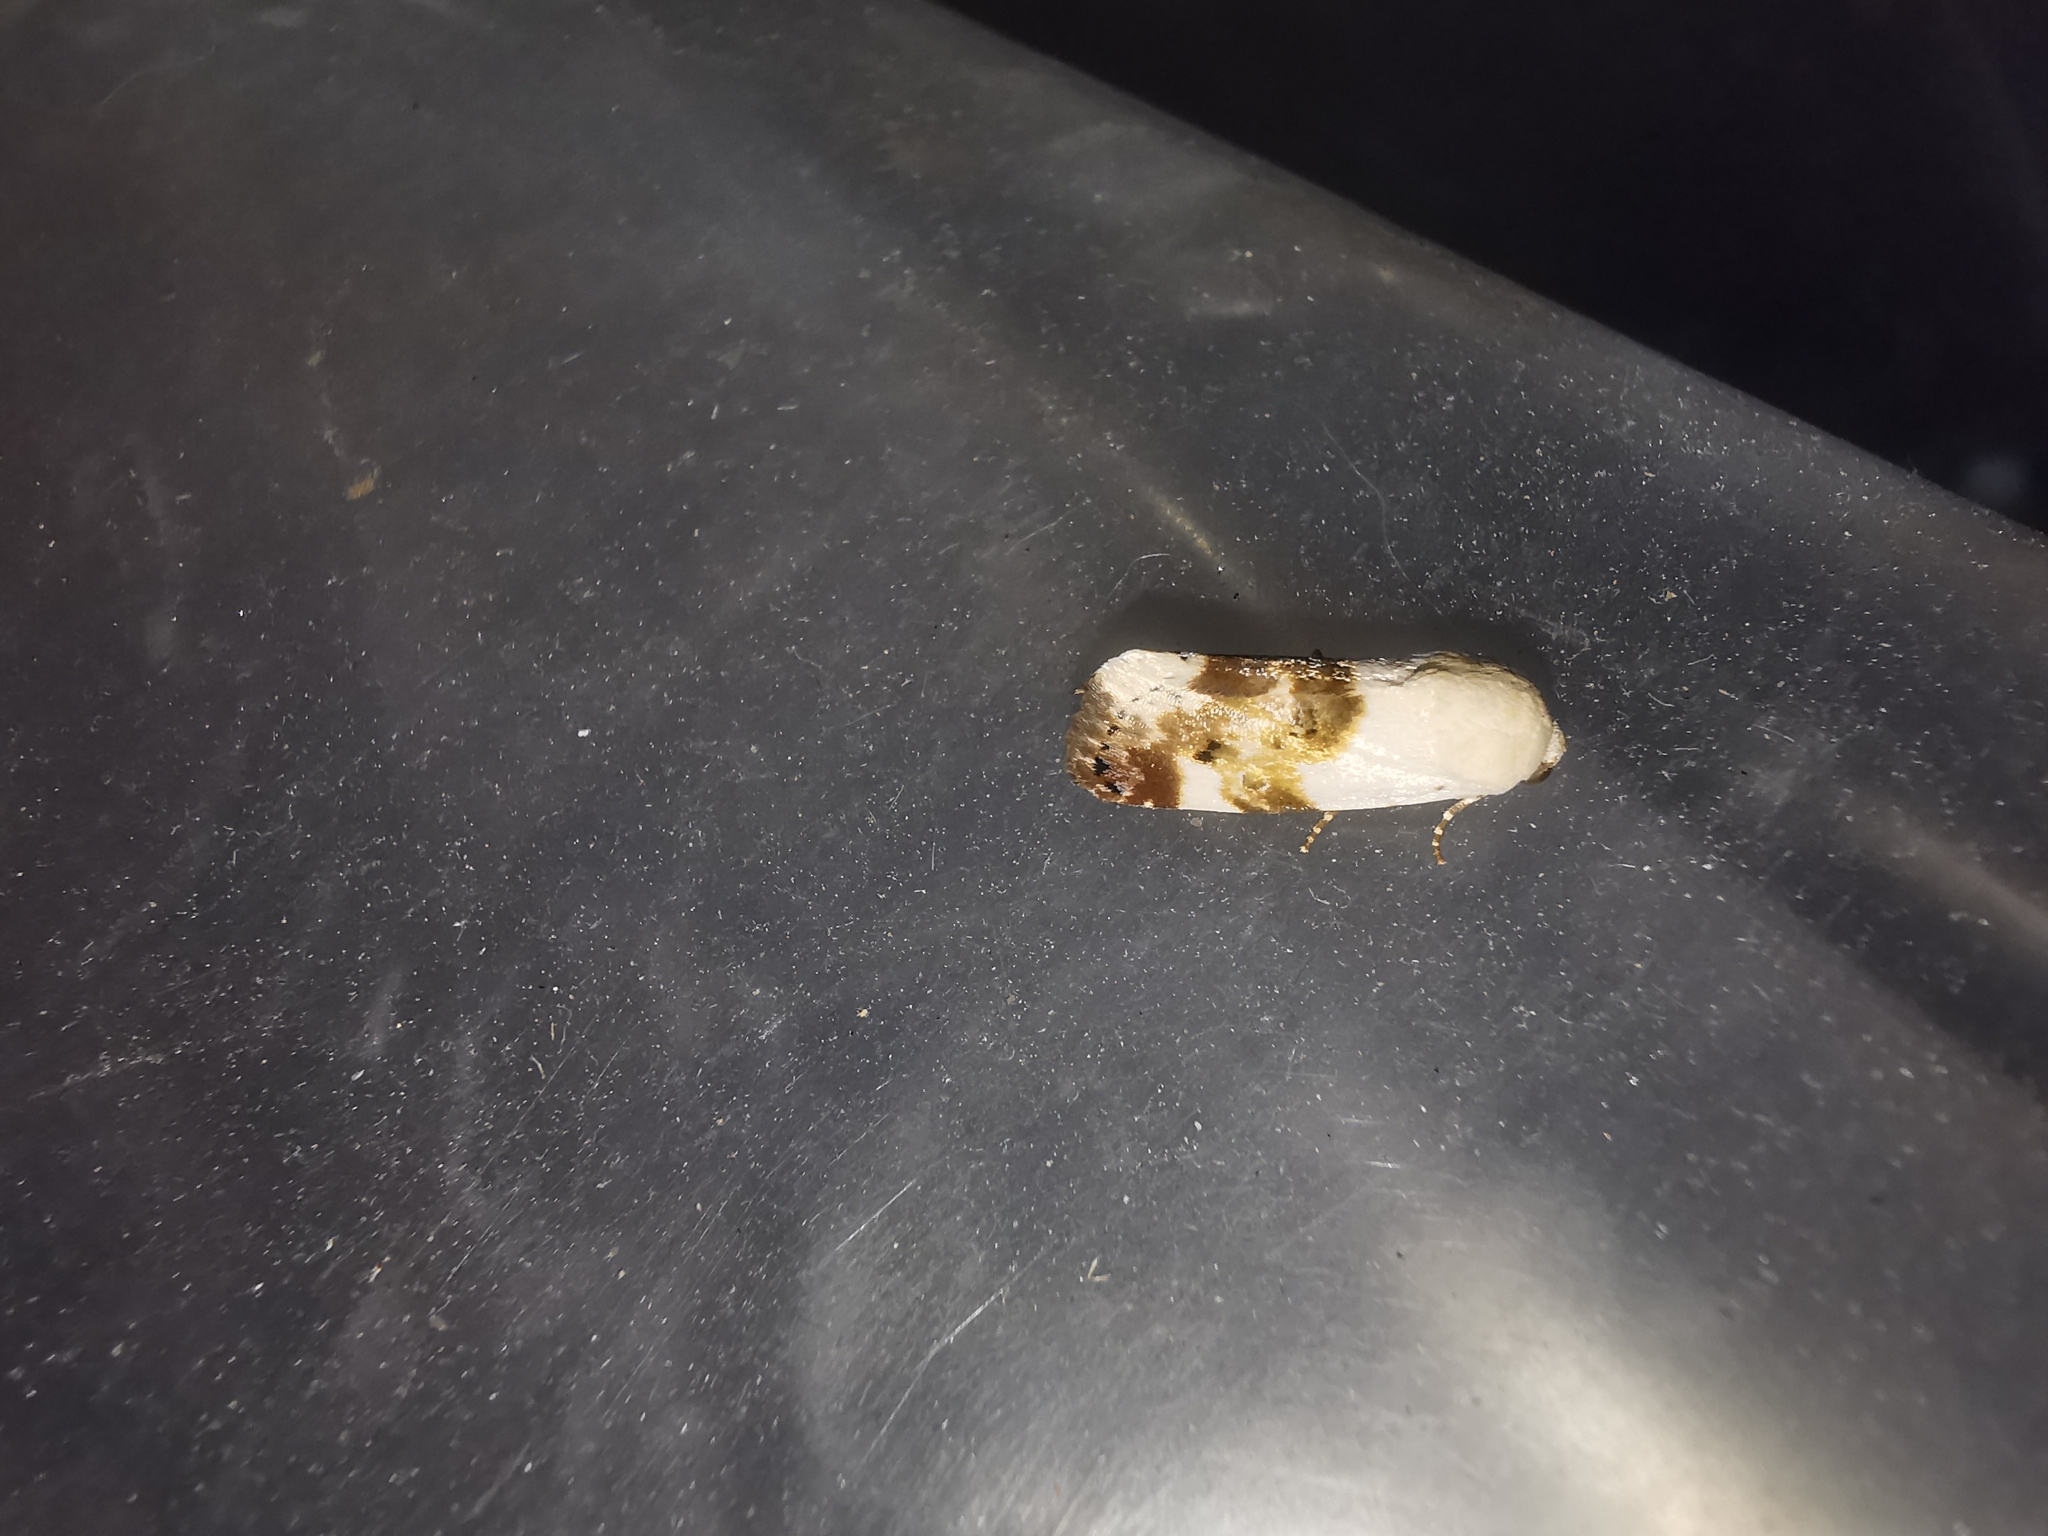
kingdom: Animalia
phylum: Arthropoda
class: Insecta
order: Lepidoptera
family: Noctuidae
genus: Acontia
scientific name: Acontia lucida
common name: Pale shoulder
